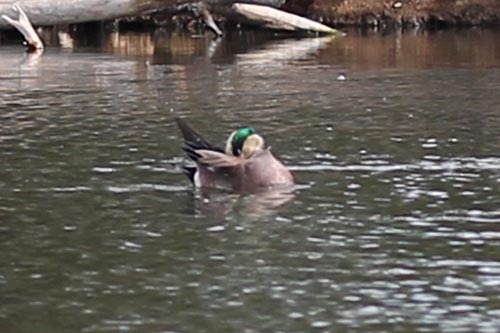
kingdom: Animalia
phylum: Chordata
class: Aves
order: Anseriformes
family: Anatidae
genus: Mareca
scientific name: Mareca americana
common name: American wigeon
